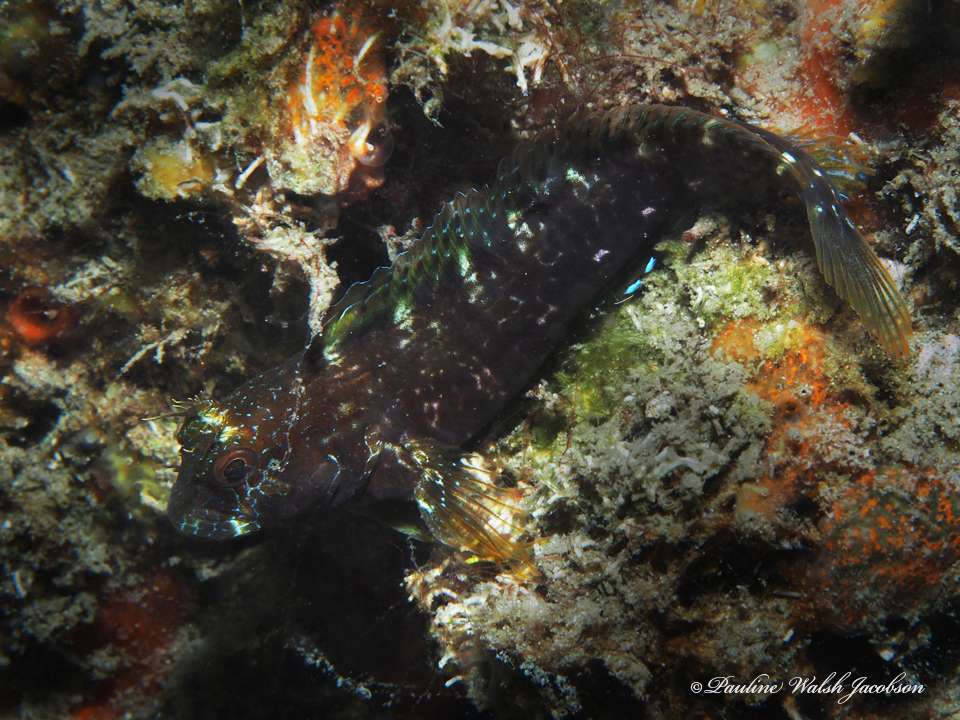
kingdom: Animalia
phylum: Chordata
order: Perciformes
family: Blenniidae
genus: Parablennius
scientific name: Parablennius marmoreus
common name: Seaweed blenny
